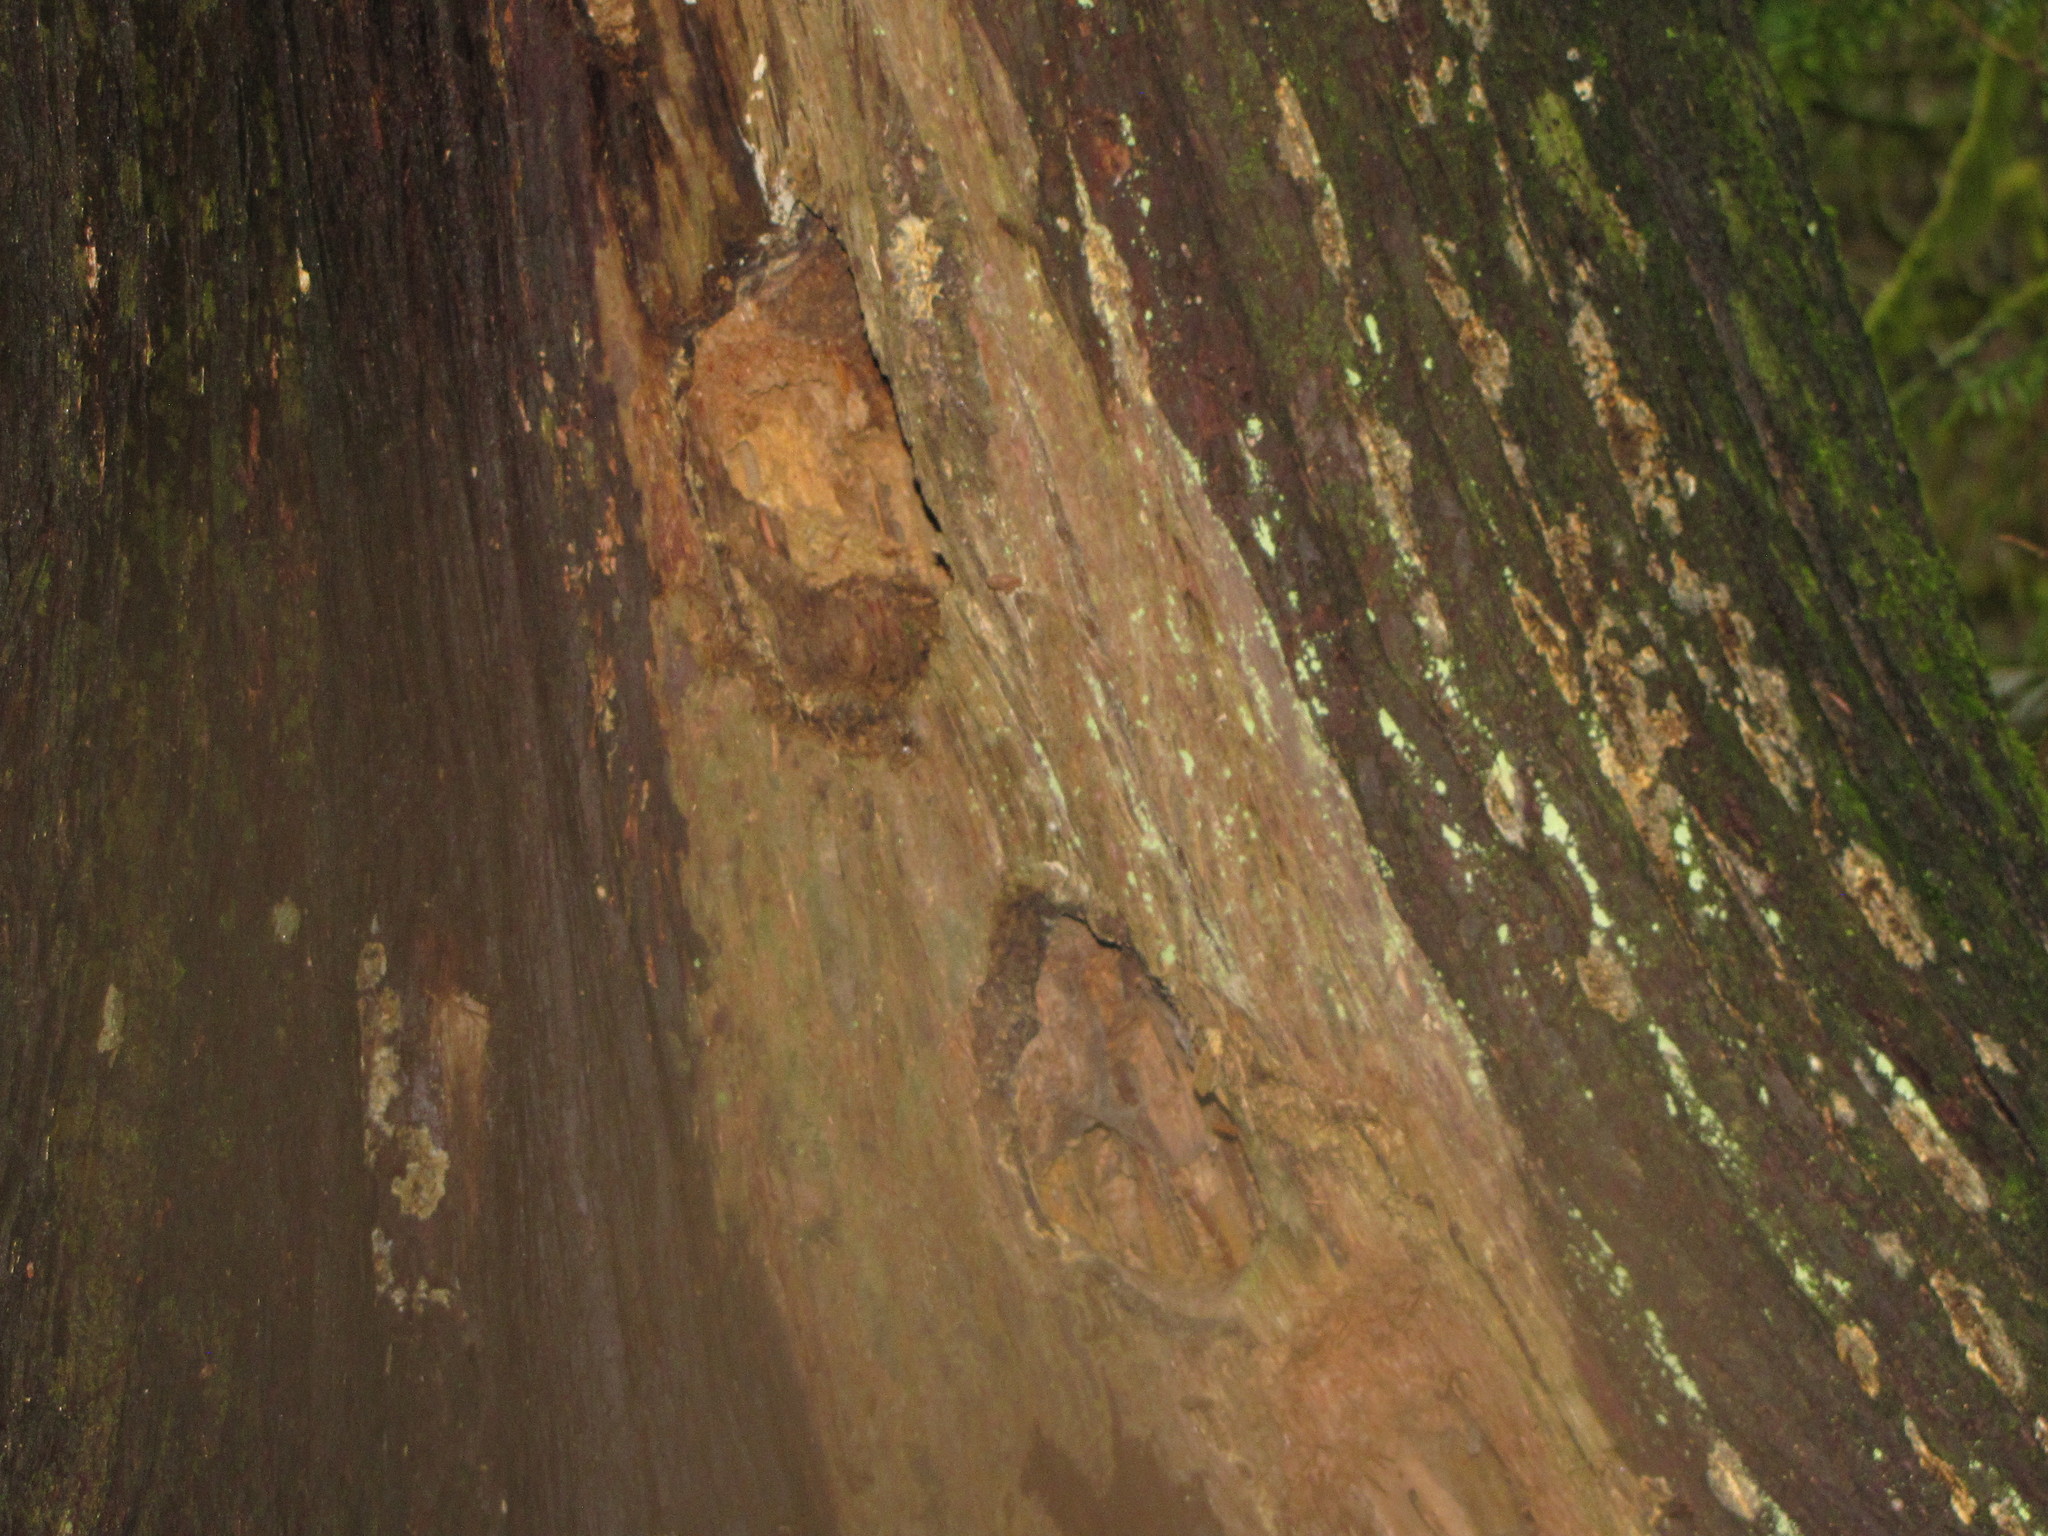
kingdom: Animalia
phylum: Chordata
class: Aves
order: Piciformes
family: Picidae
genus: Dryocopus
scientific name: Dryocopus pileatus
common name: Pileated woodpecker
